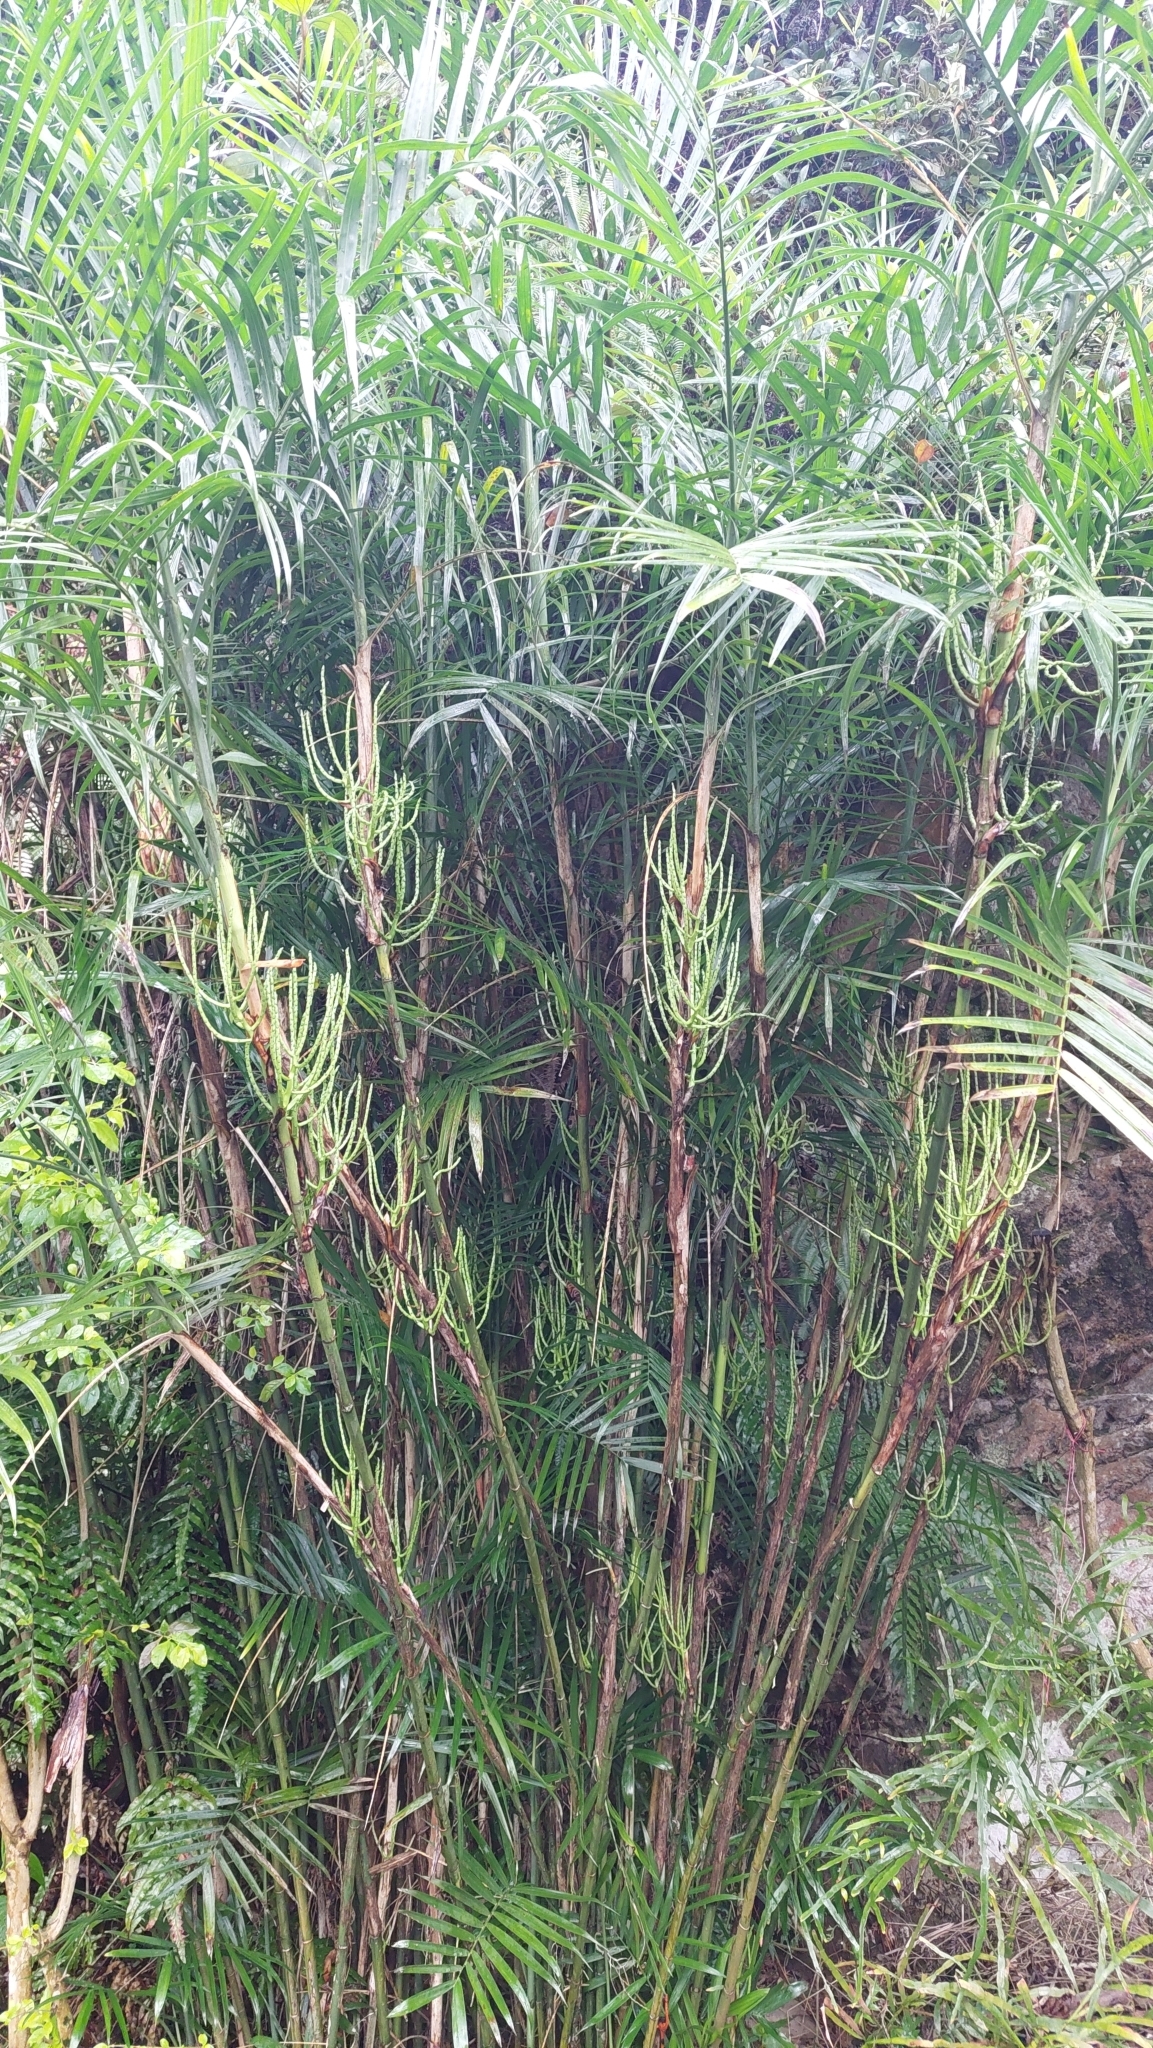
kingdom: Plantae
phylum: Tracheophyta
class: Liliopsida
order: Arecales
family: Arecaceae
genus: Arenga
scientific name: Arenga engleri
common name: Formosan sugar palm
